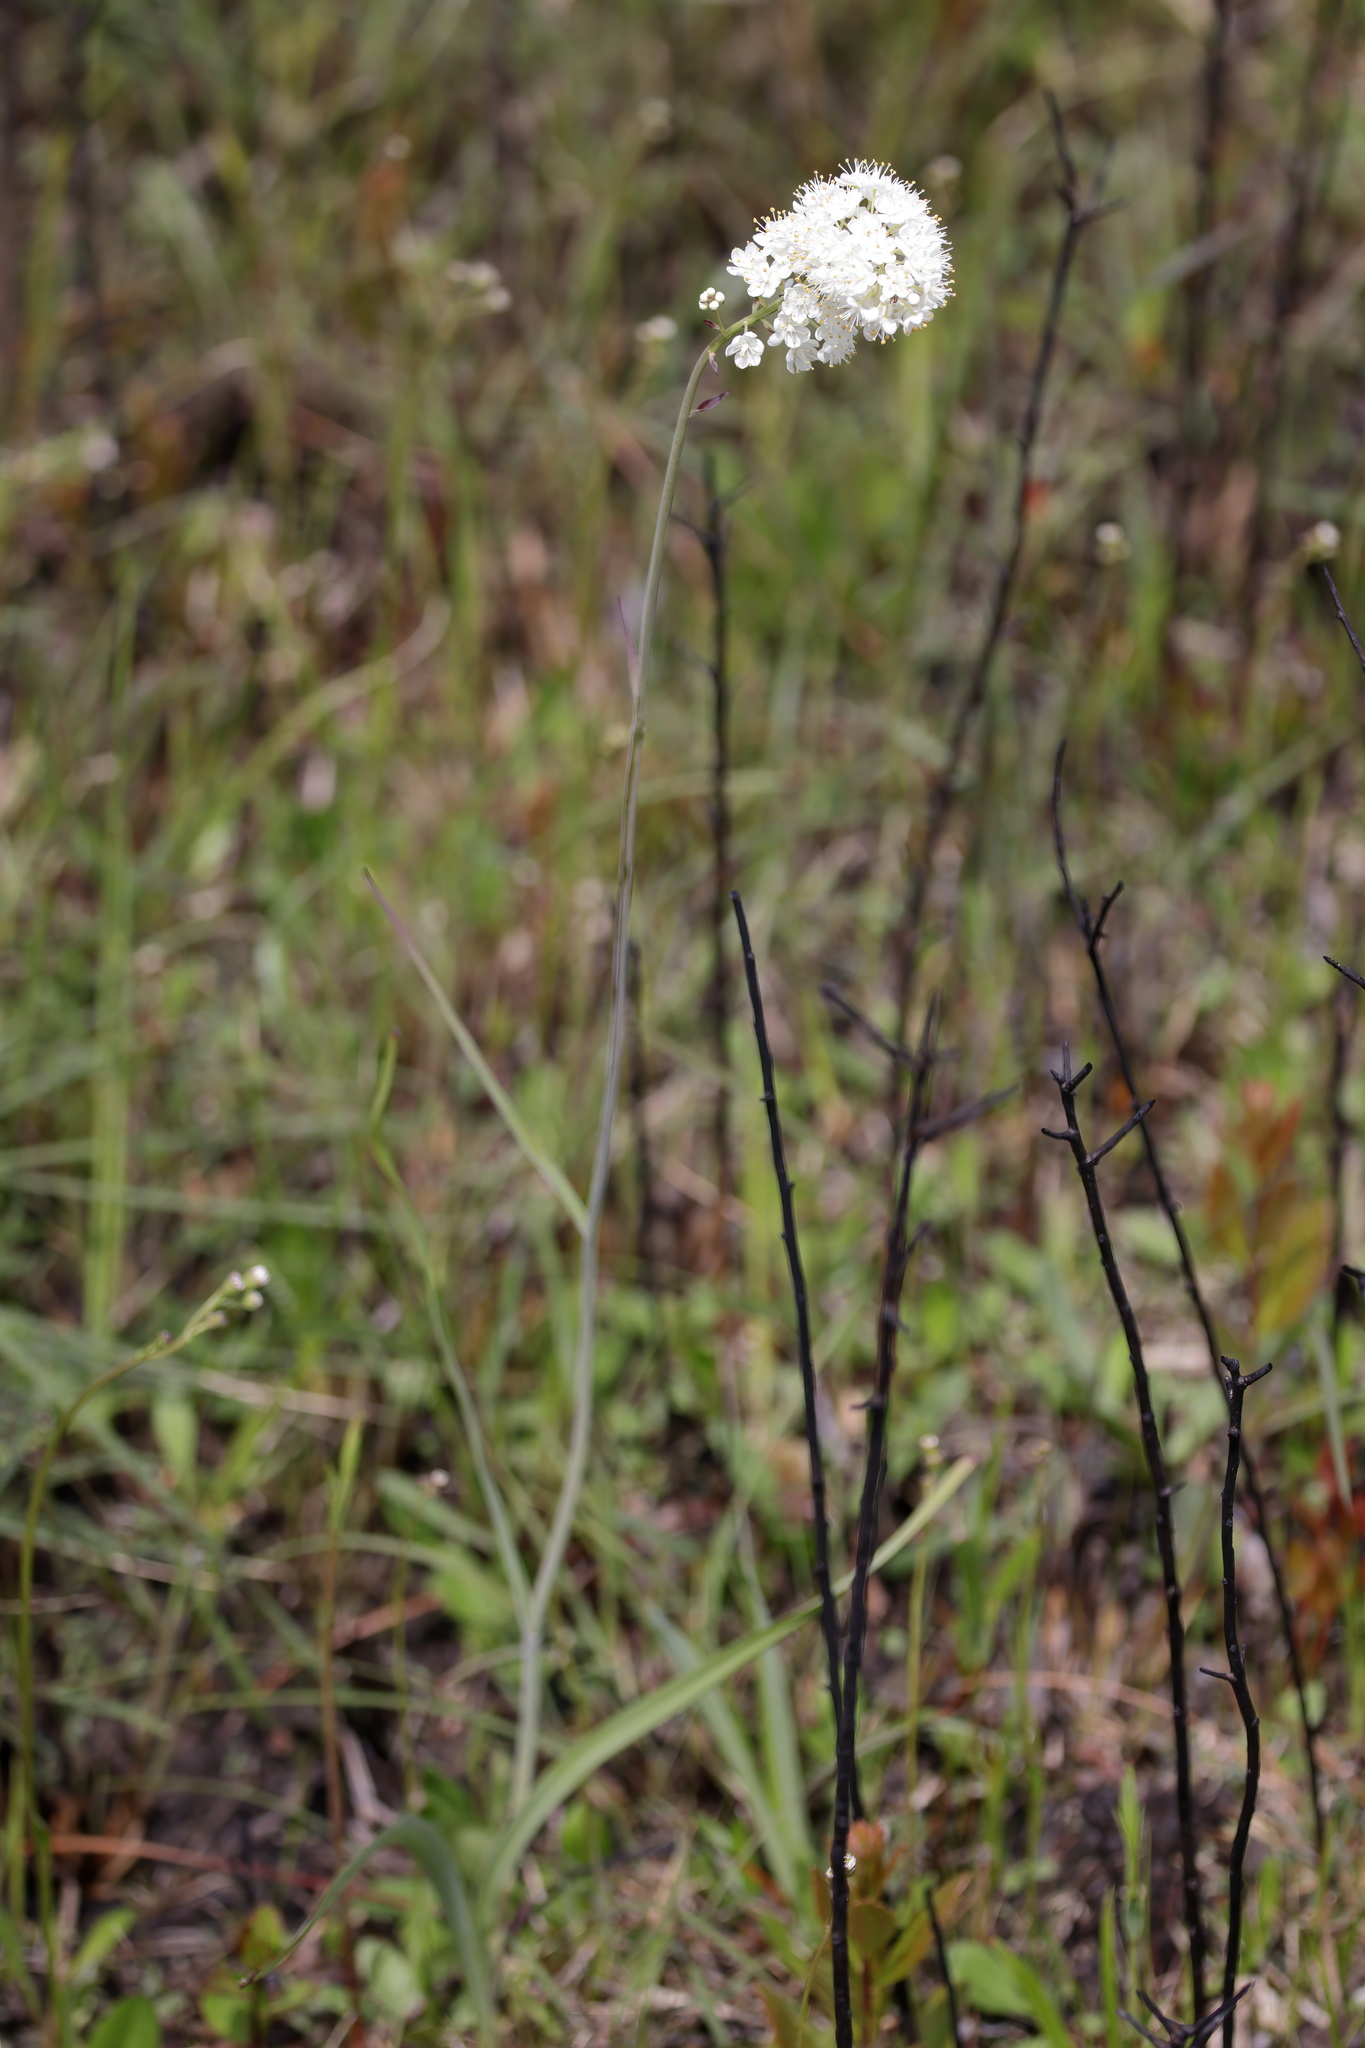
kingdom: Plantae
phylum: Tracheophyta
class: Liliopsida
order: Liliales
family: Melanthiaceae
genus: Stenanthium
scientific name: Stenanthium densum
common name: Crow-poison
